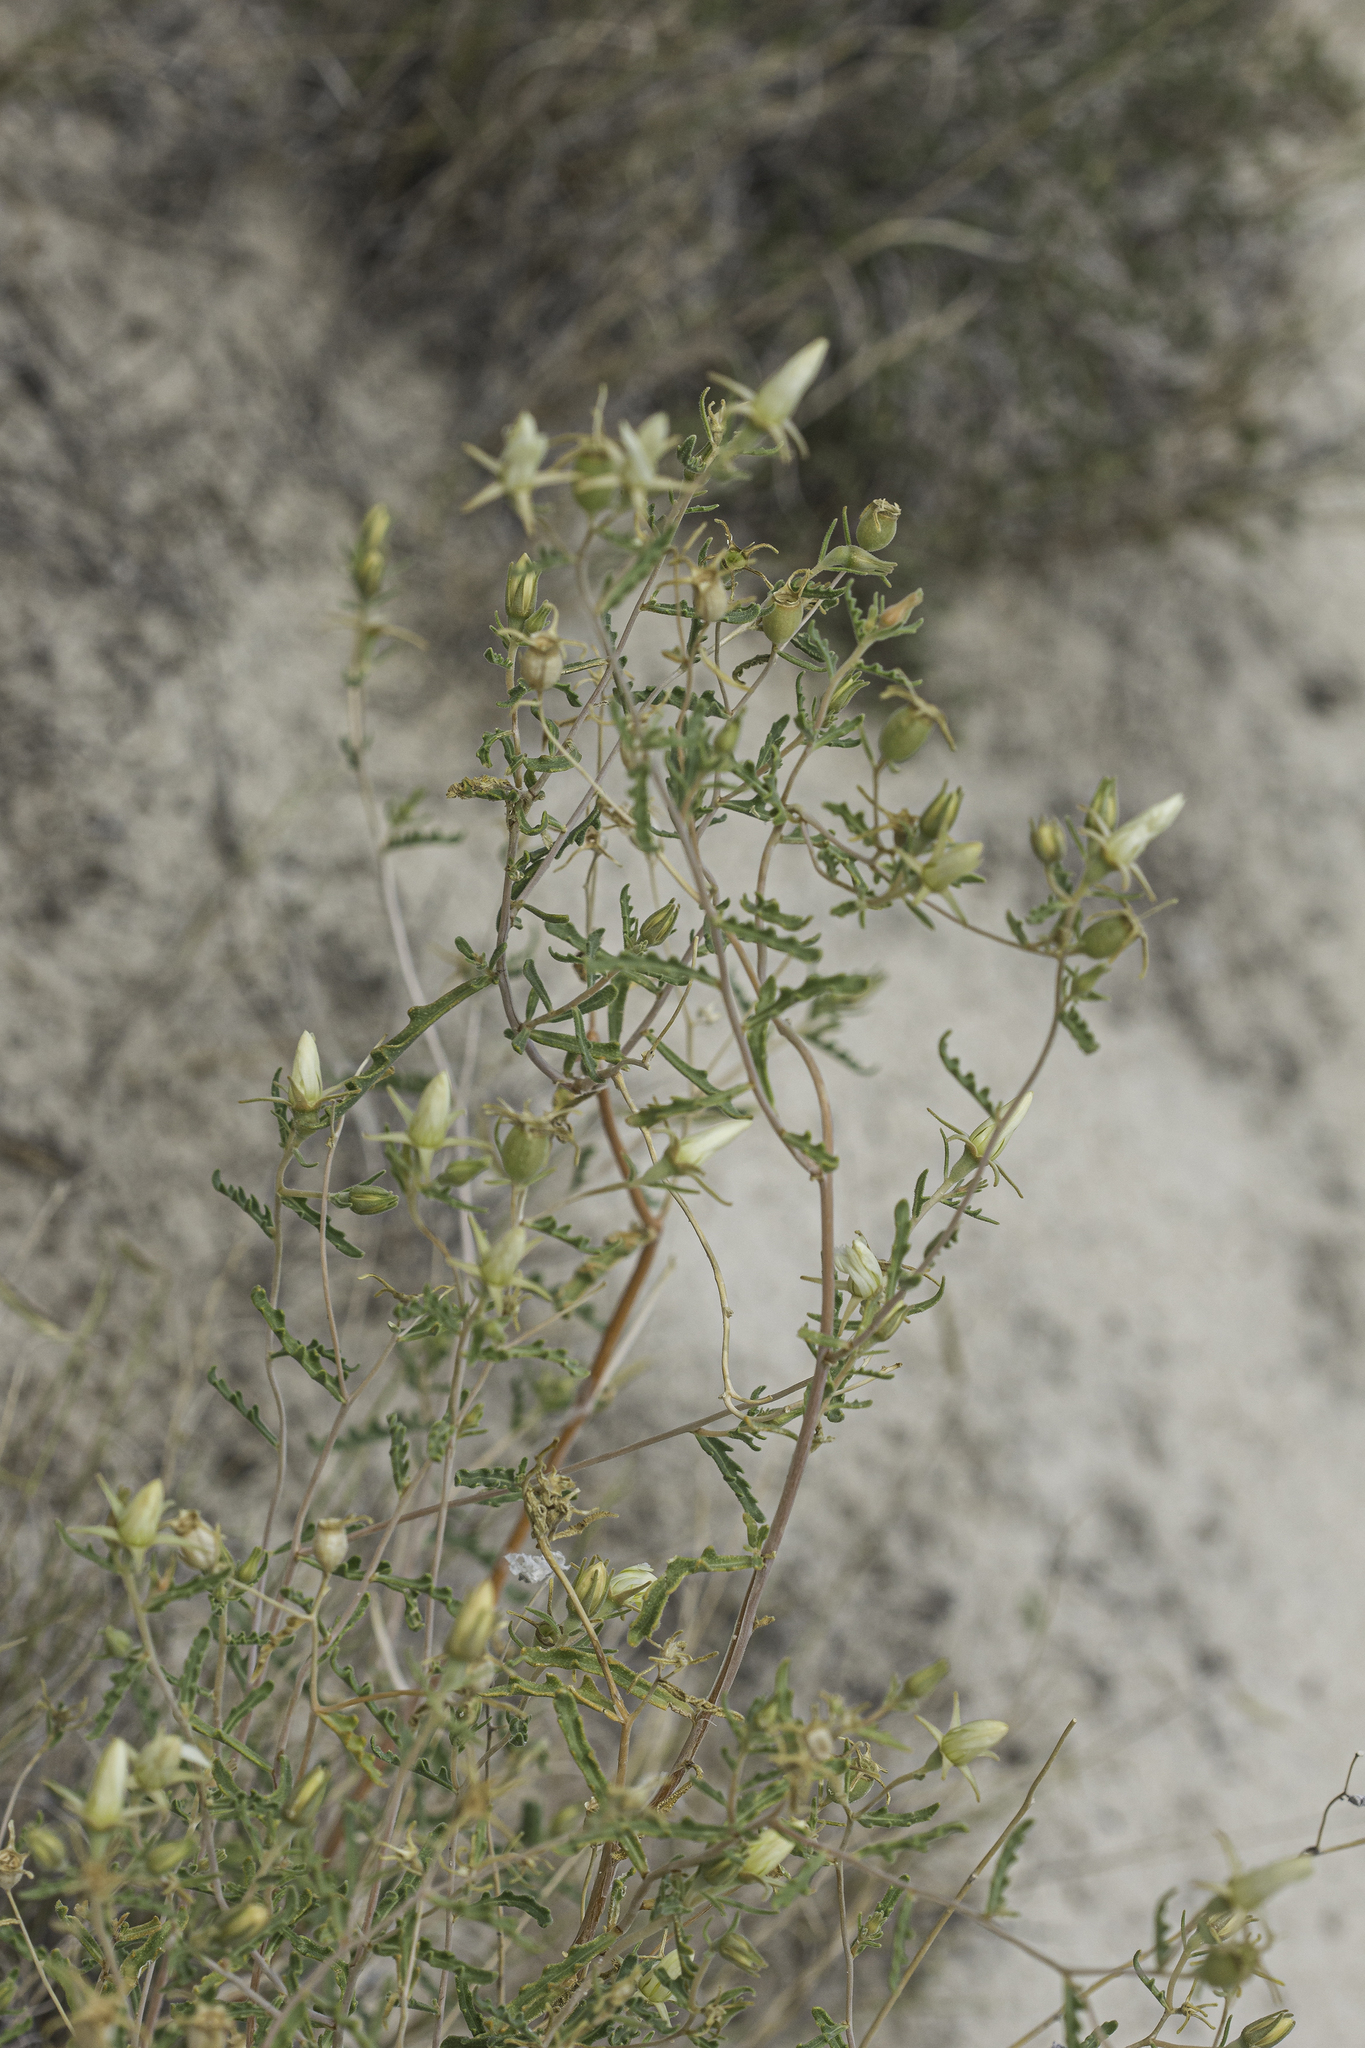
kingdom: Plantae
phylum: Tracheophyta
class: Magnoliopsida
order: Cornales
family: Loasaceae
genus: Mentzelia
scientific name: Mentzelia procera
